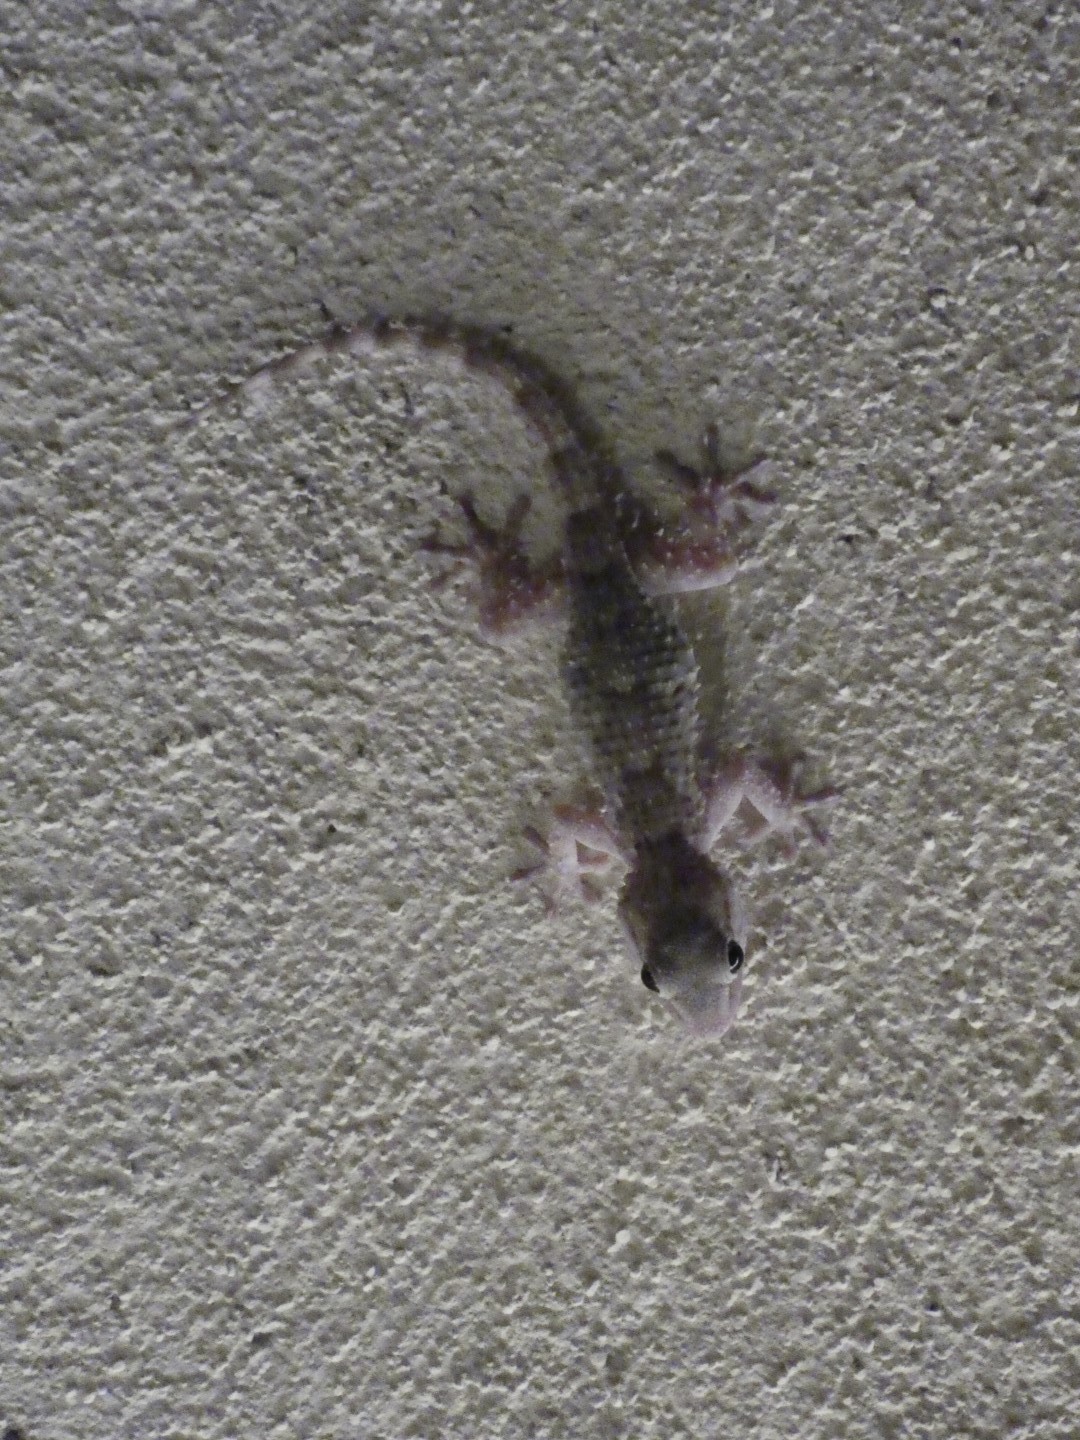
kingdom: Animalia
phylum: Chordata
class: Squamata
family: Phyllodactylidae
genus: Tarentola
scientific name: Tarentola mauritanica
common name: Moorish gecko
